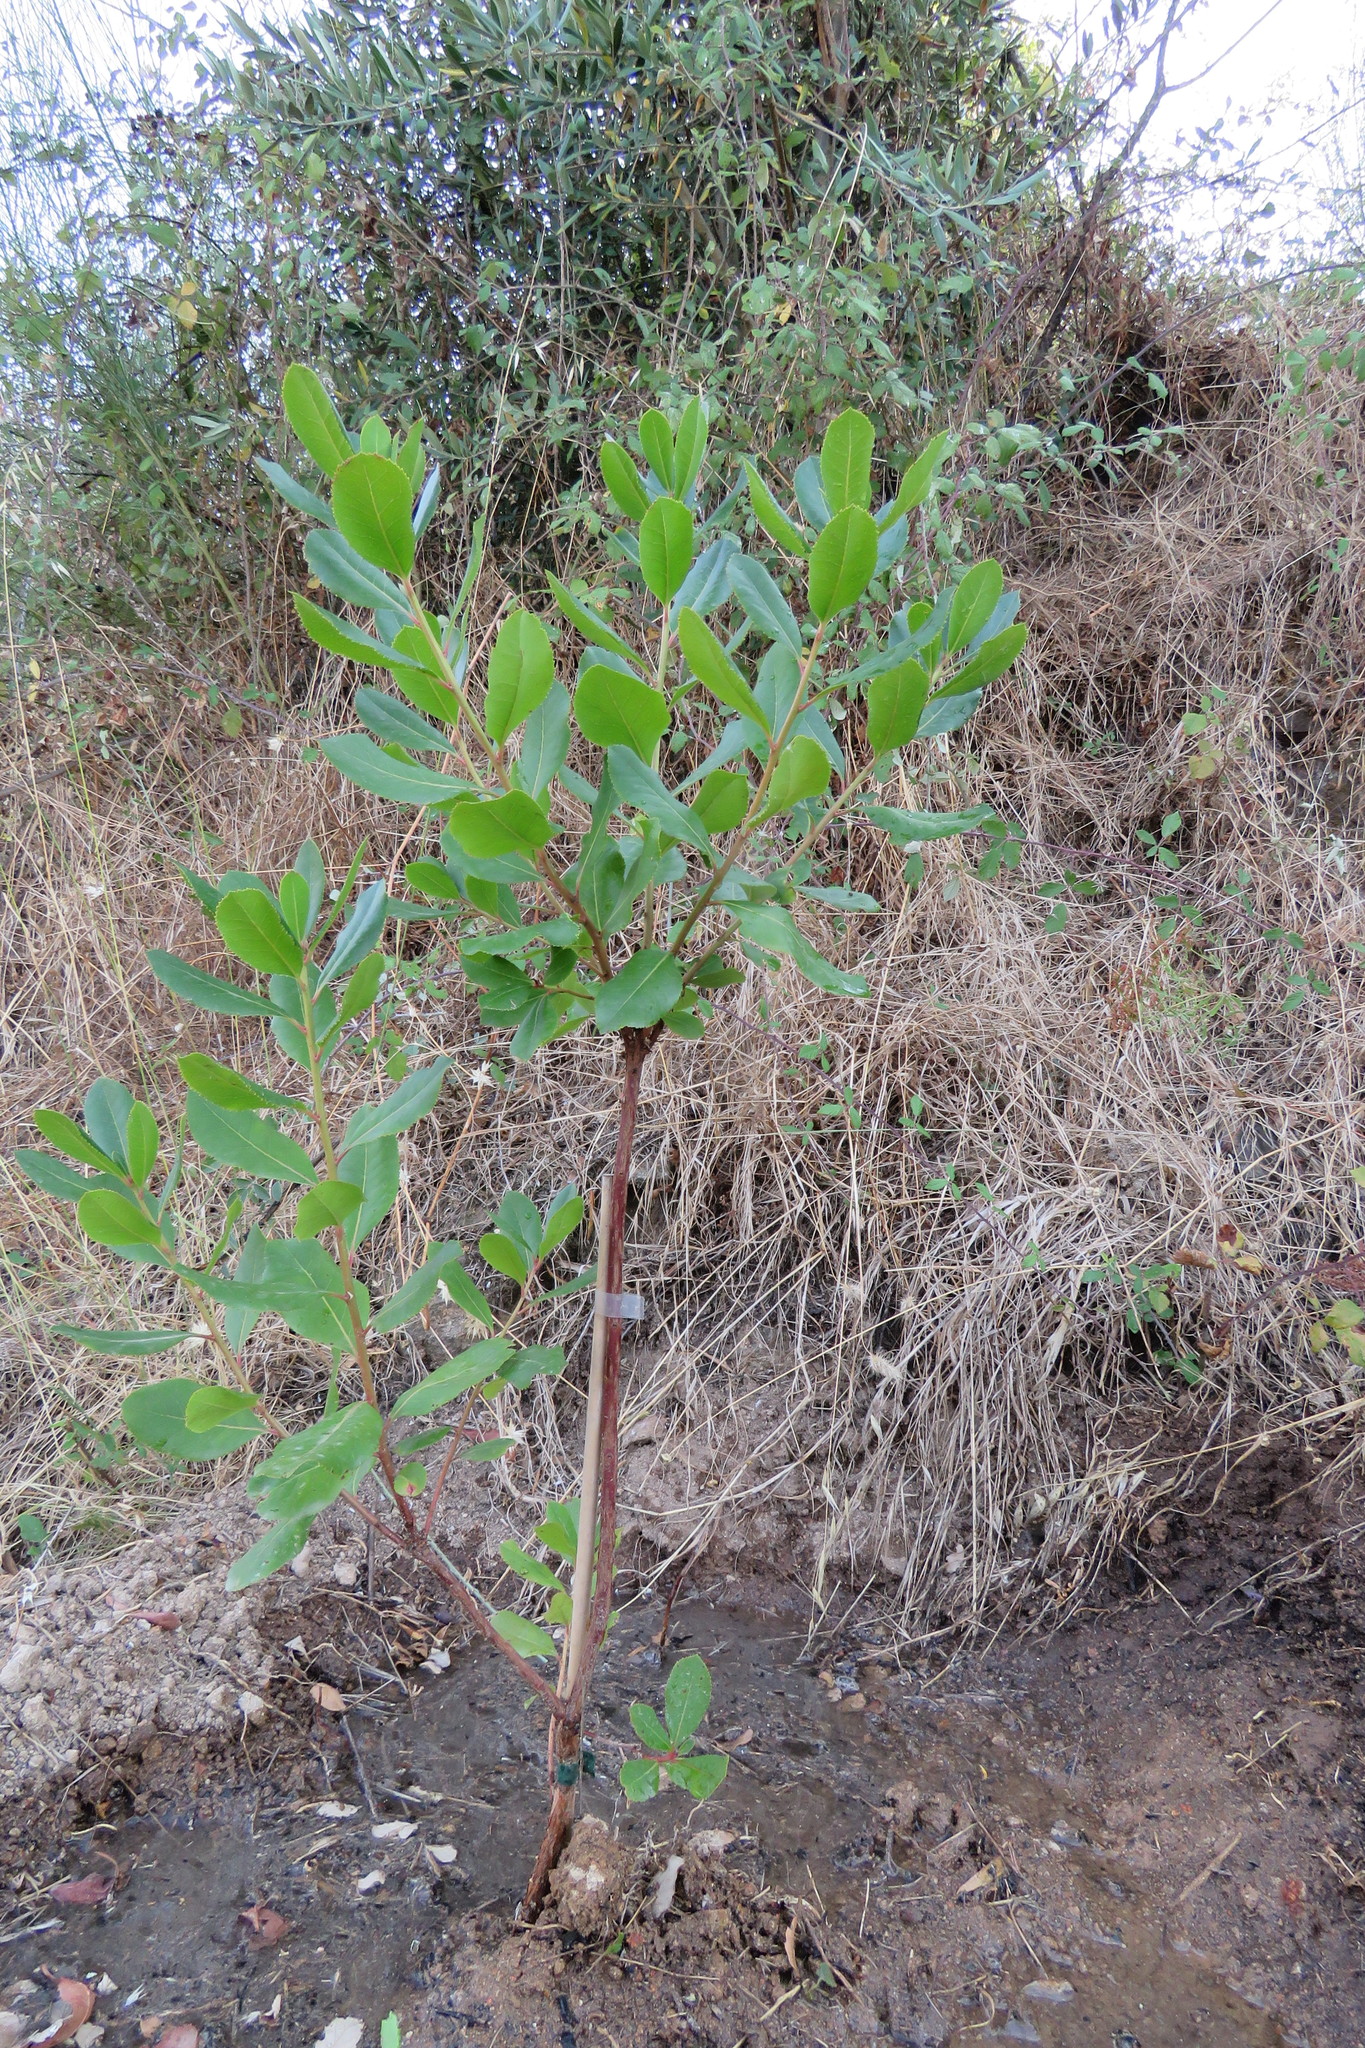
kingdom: Plantae
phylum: Tracheophyta
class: Magnoliopsida
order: Ericales
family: Ericaceae
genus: Arbutus
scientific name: Arbutus unedo
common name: Strawberry-tree
